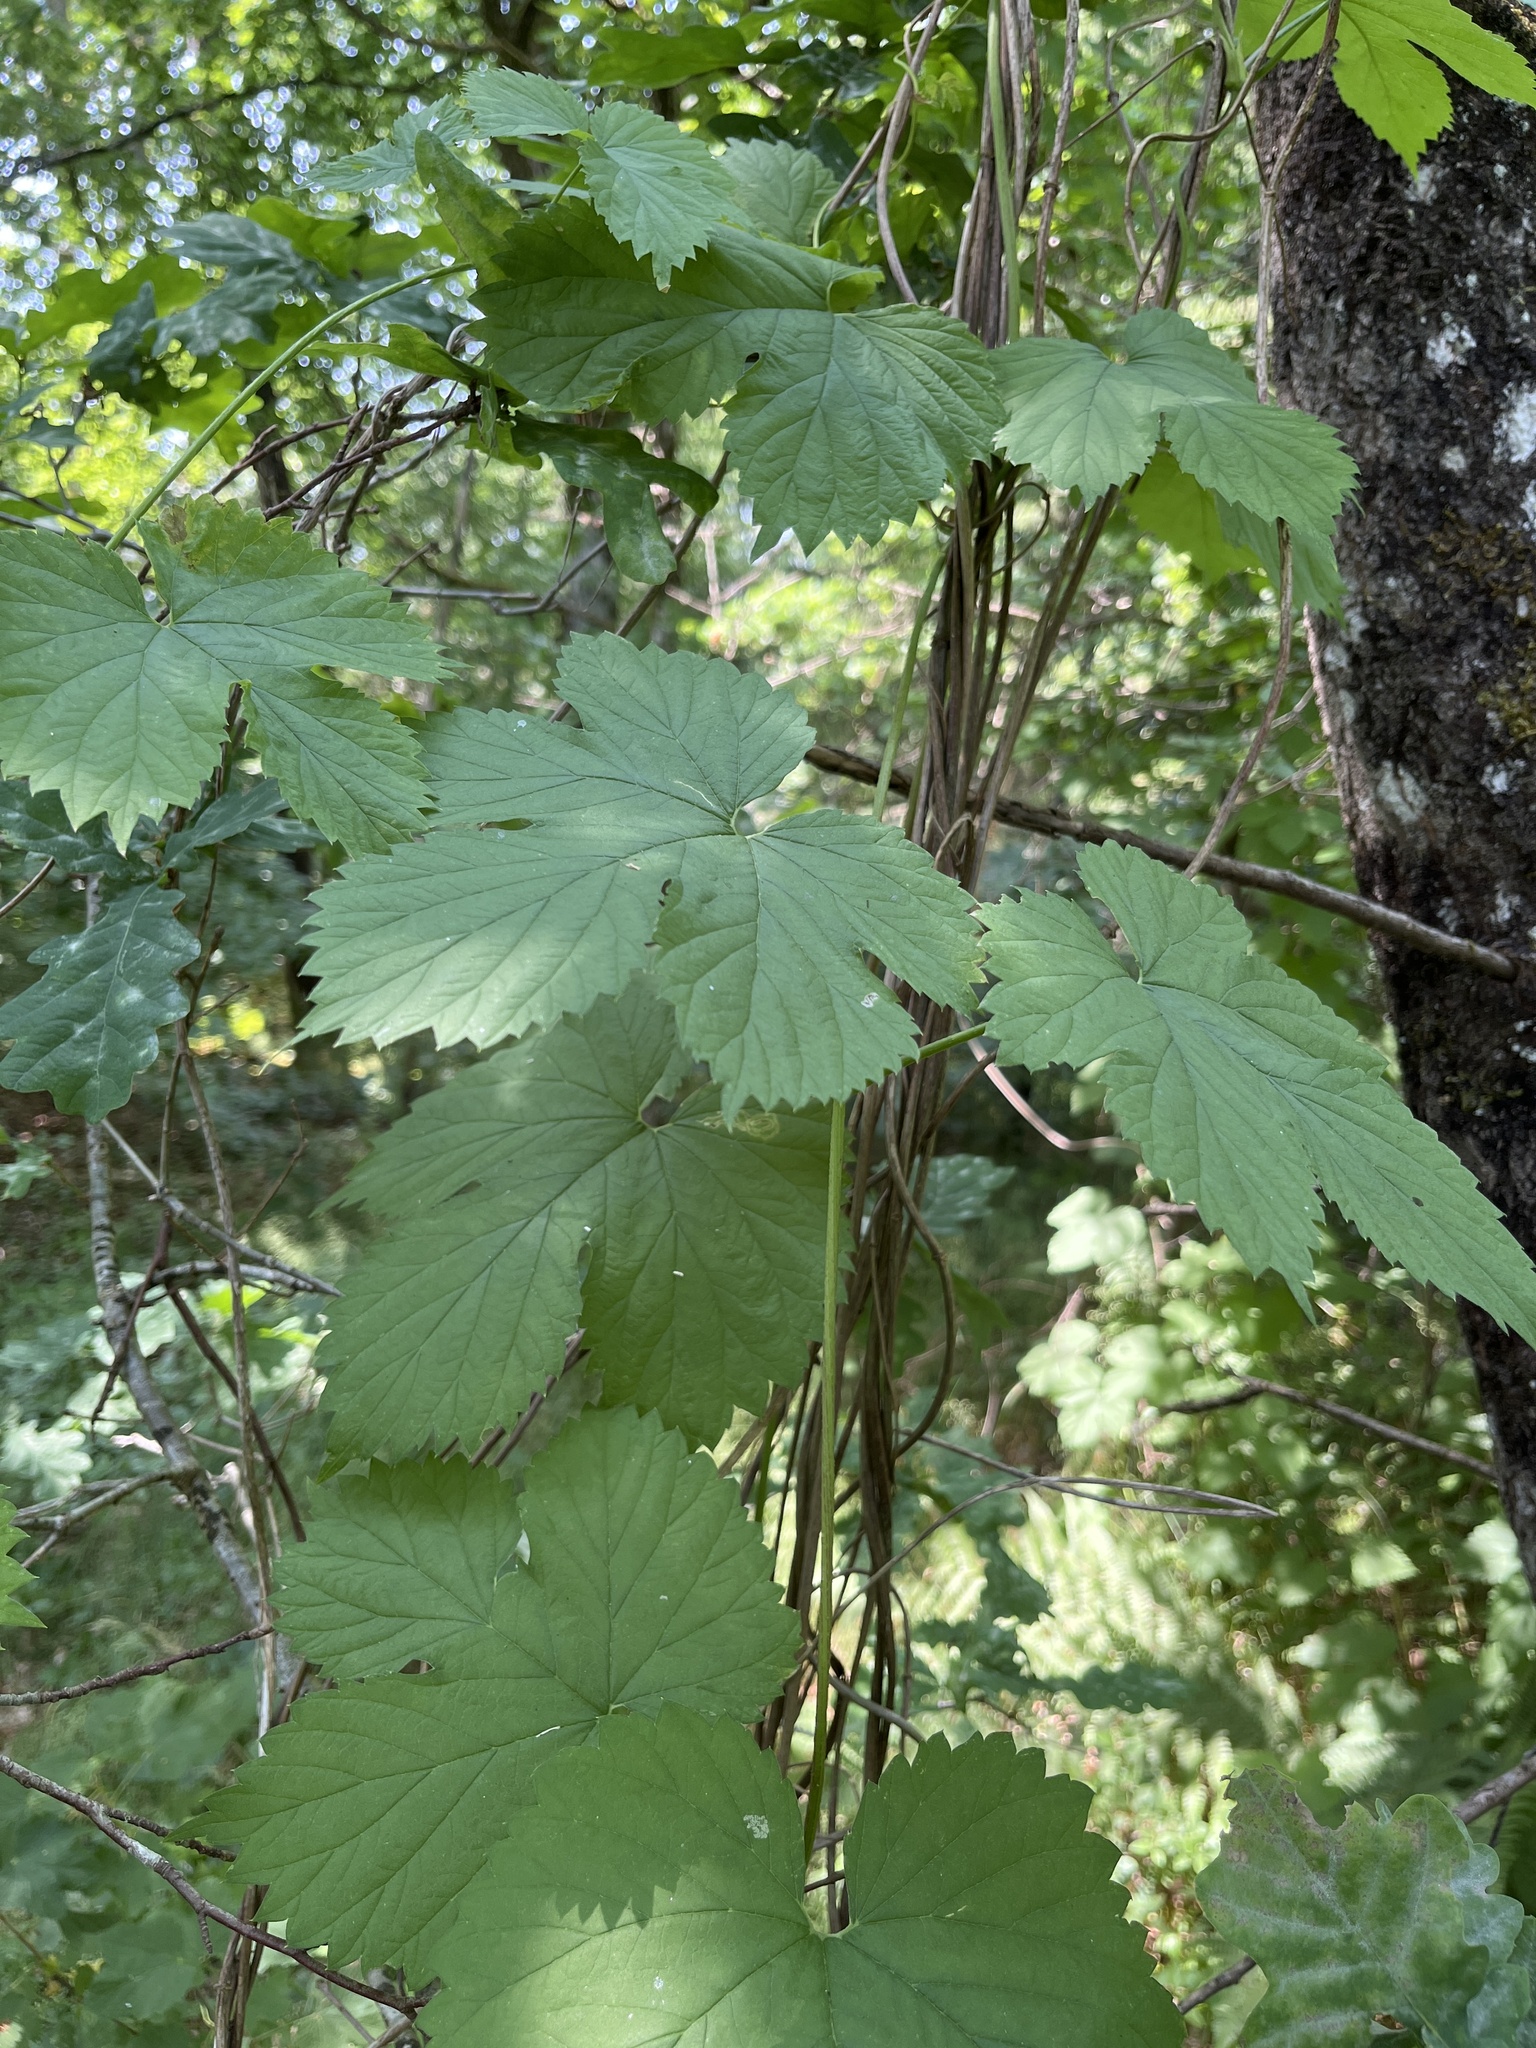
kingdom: Plantae
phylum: Tracheophyta
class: Magnoliopsida
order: Rosales
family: Cannabaceae
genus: Humulus
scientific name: Humulus lupulus
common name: Hop
